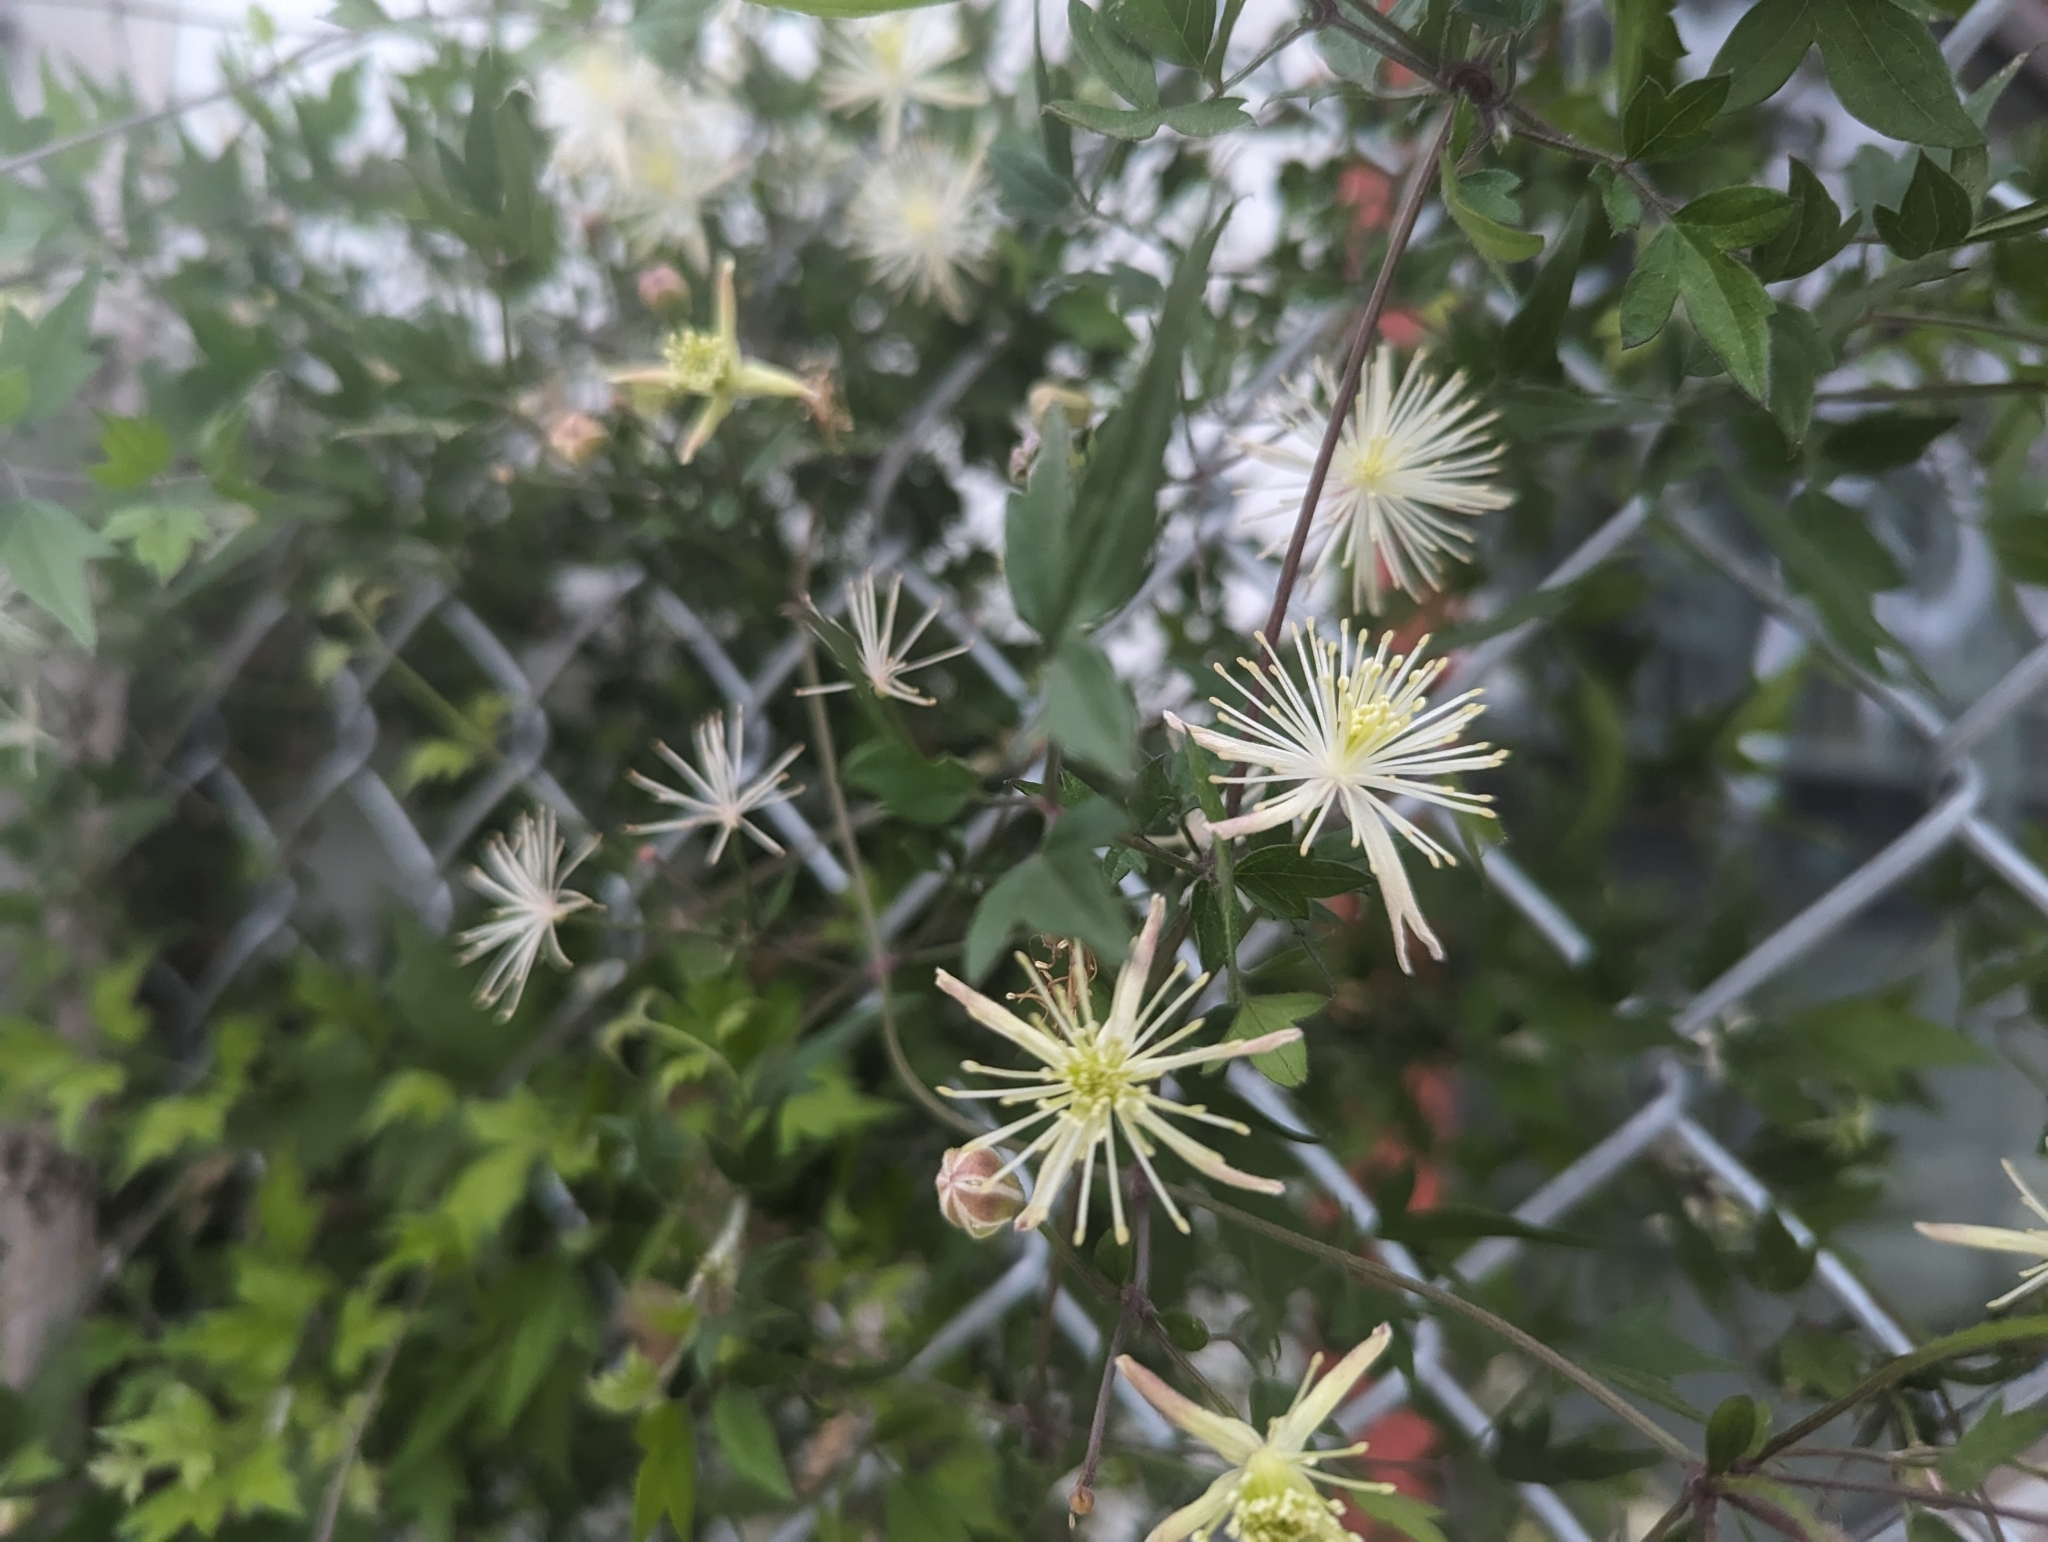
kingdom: Plantae
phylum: Tracheophyta
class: Magnoliopsida
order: Ranunculales
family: Ranunculaceae
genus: Clematis
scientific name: Clematis drummondii
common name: Texas virgin's bower
